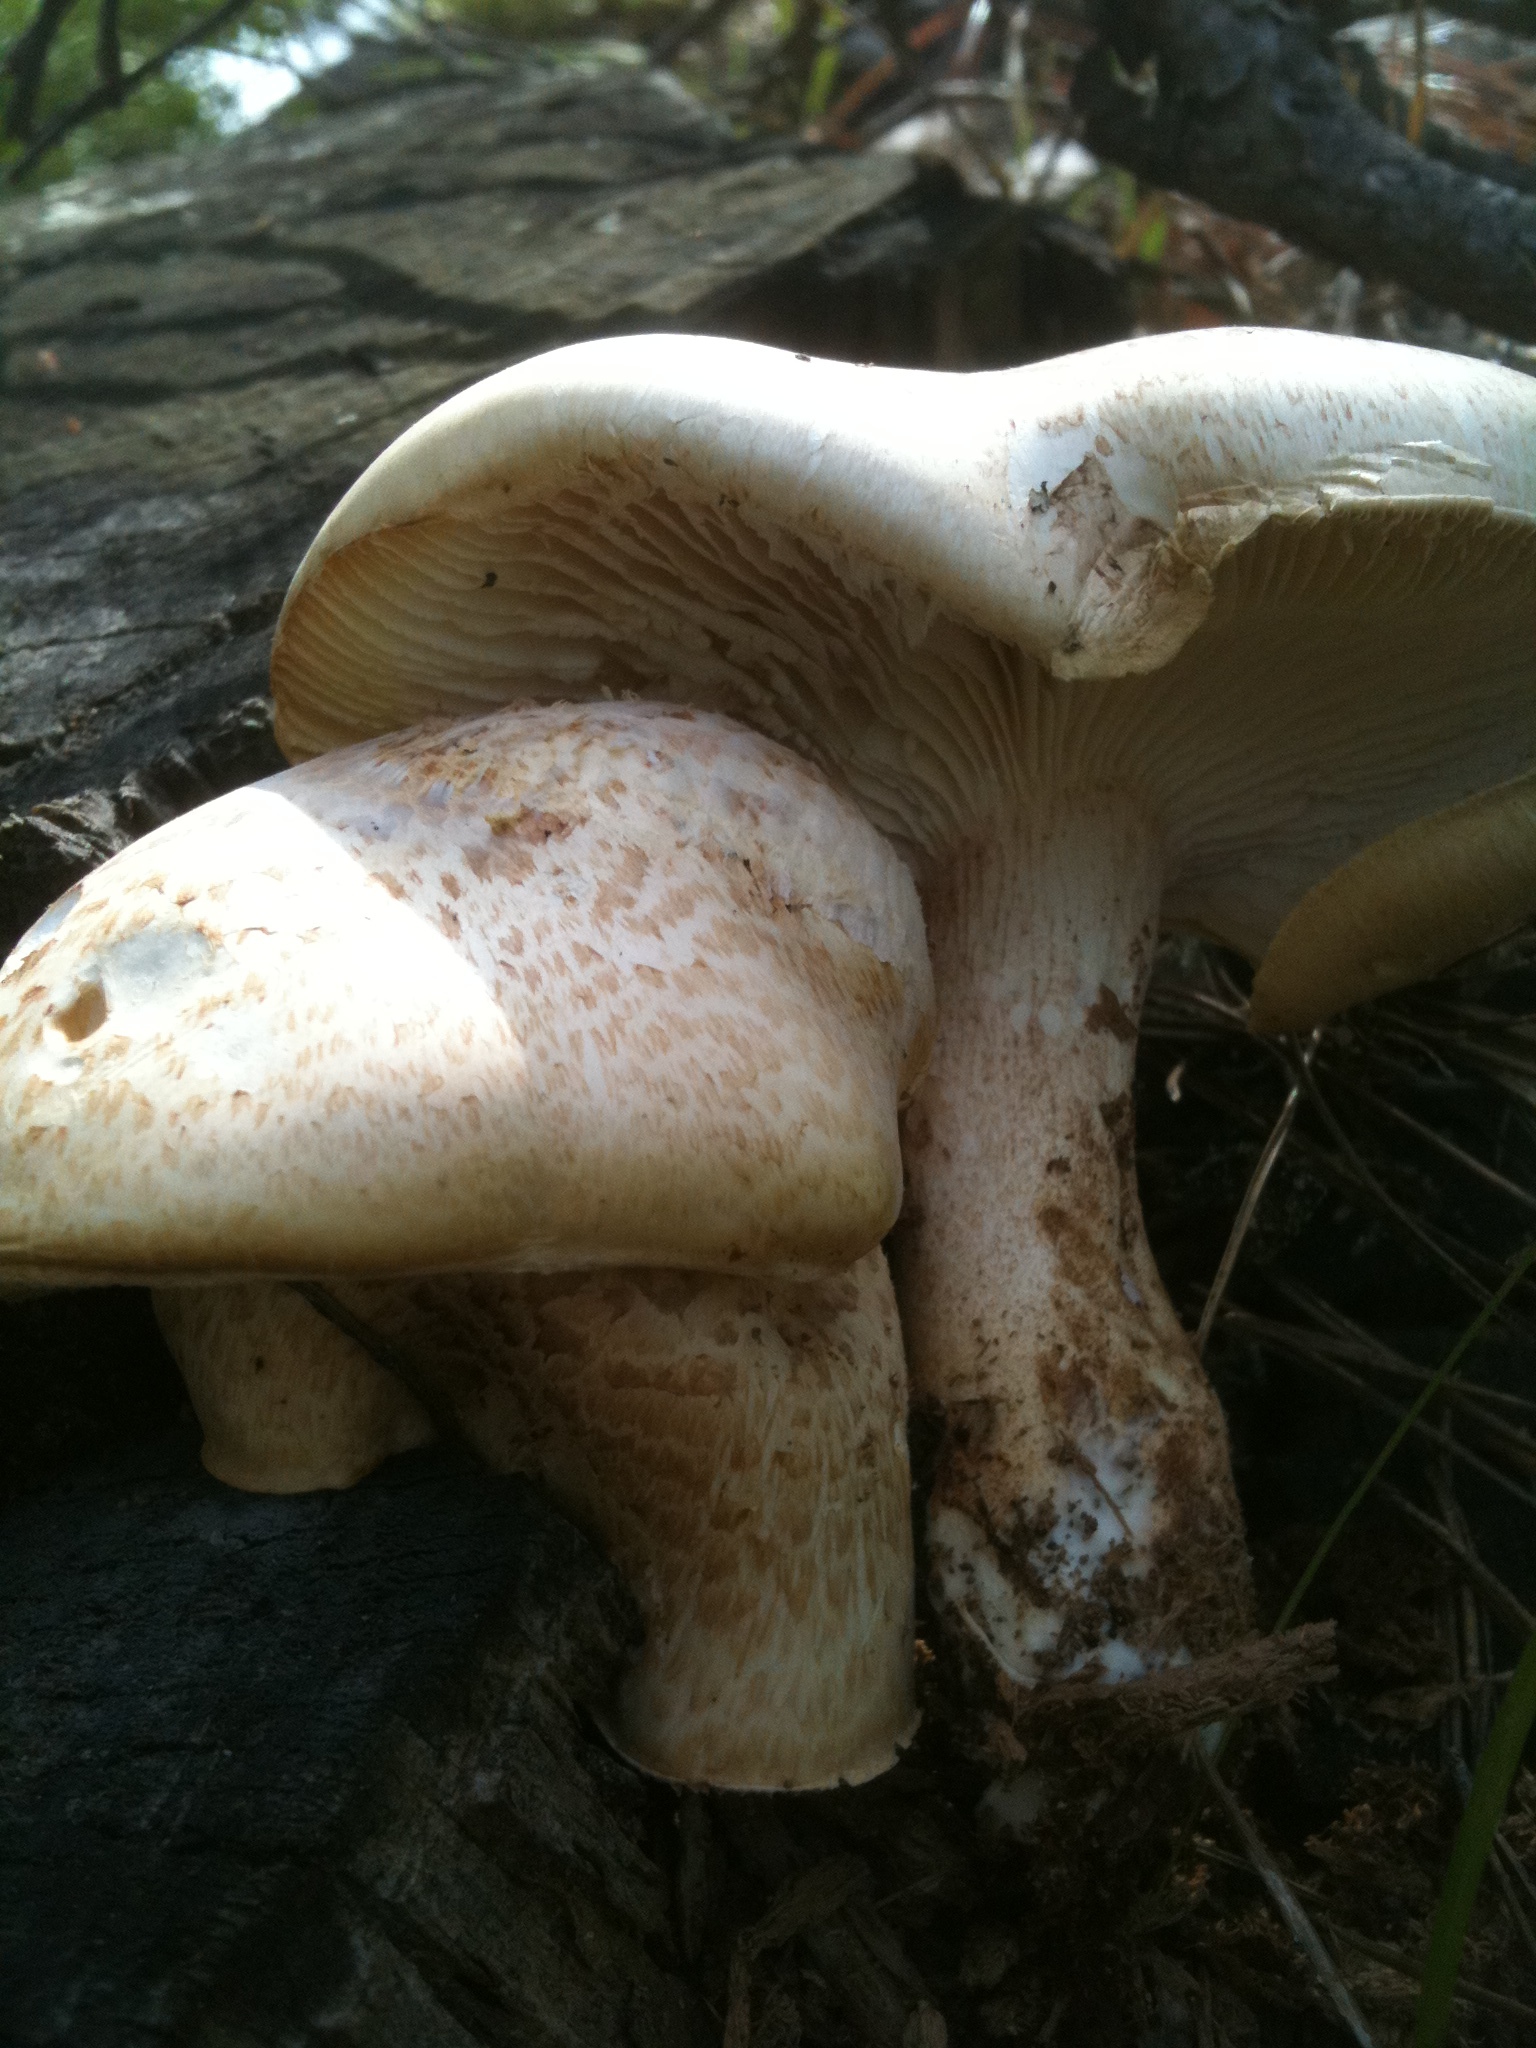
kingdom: Fungi
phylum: Basidiomycota
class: Agaricomycetes
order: Gloeophyllales
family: Gloeophyllaceae
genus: Neolentinus
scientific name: Neolentinus lepideus
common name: Scaly sawgill
